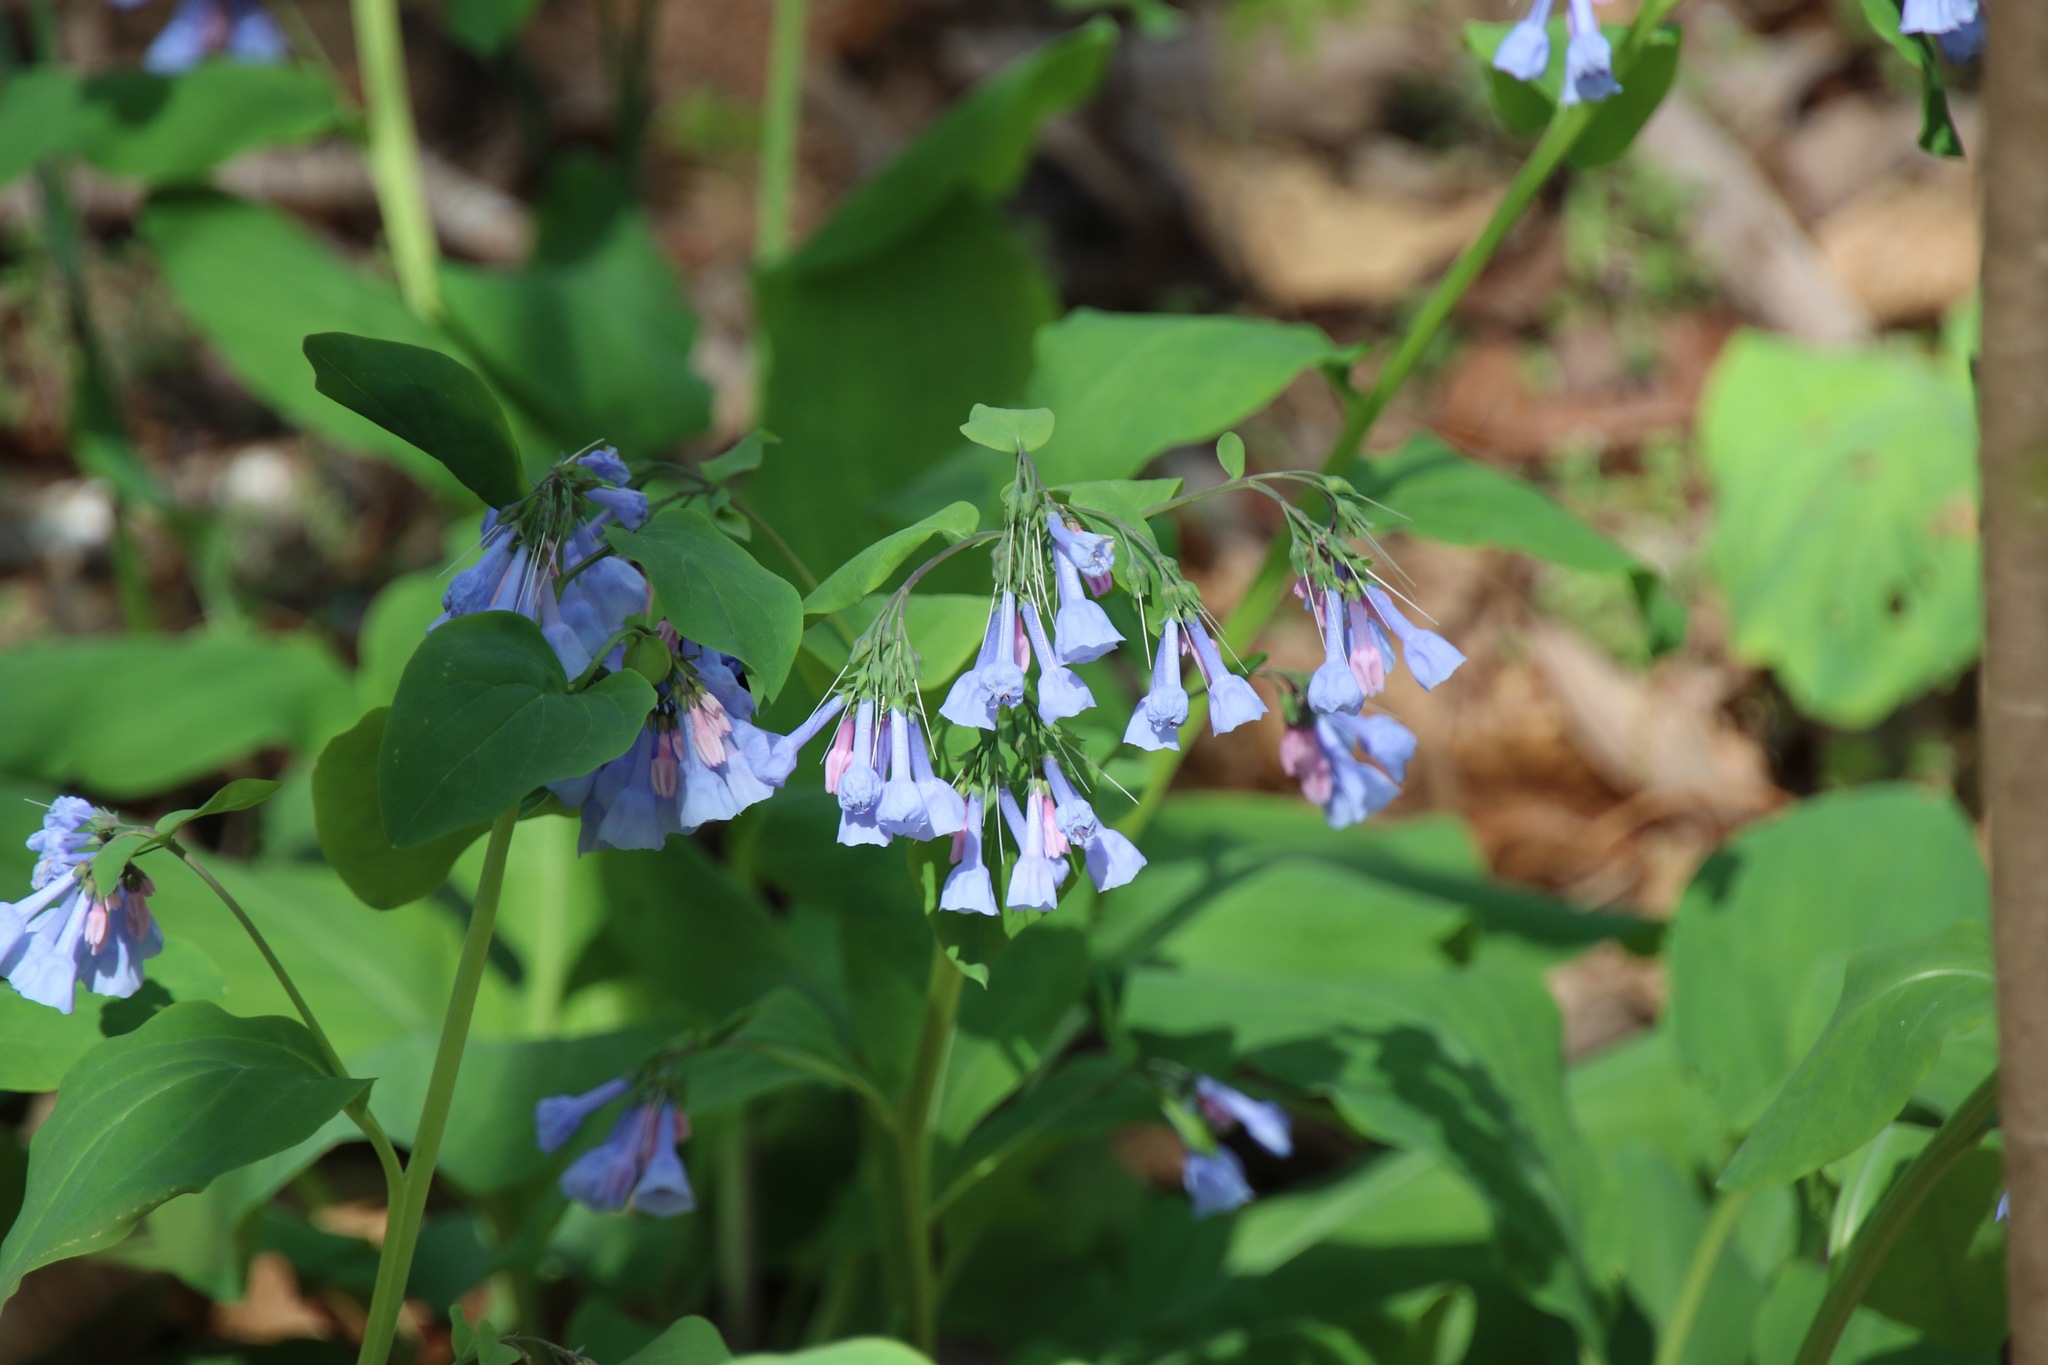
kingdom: Plantae
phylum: Tracheophyta
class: Magnoliopsida
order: Boraginales
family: Boraginaceae
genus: Mertensia
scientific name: Mertensia virginica
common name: Virginia bluebells
